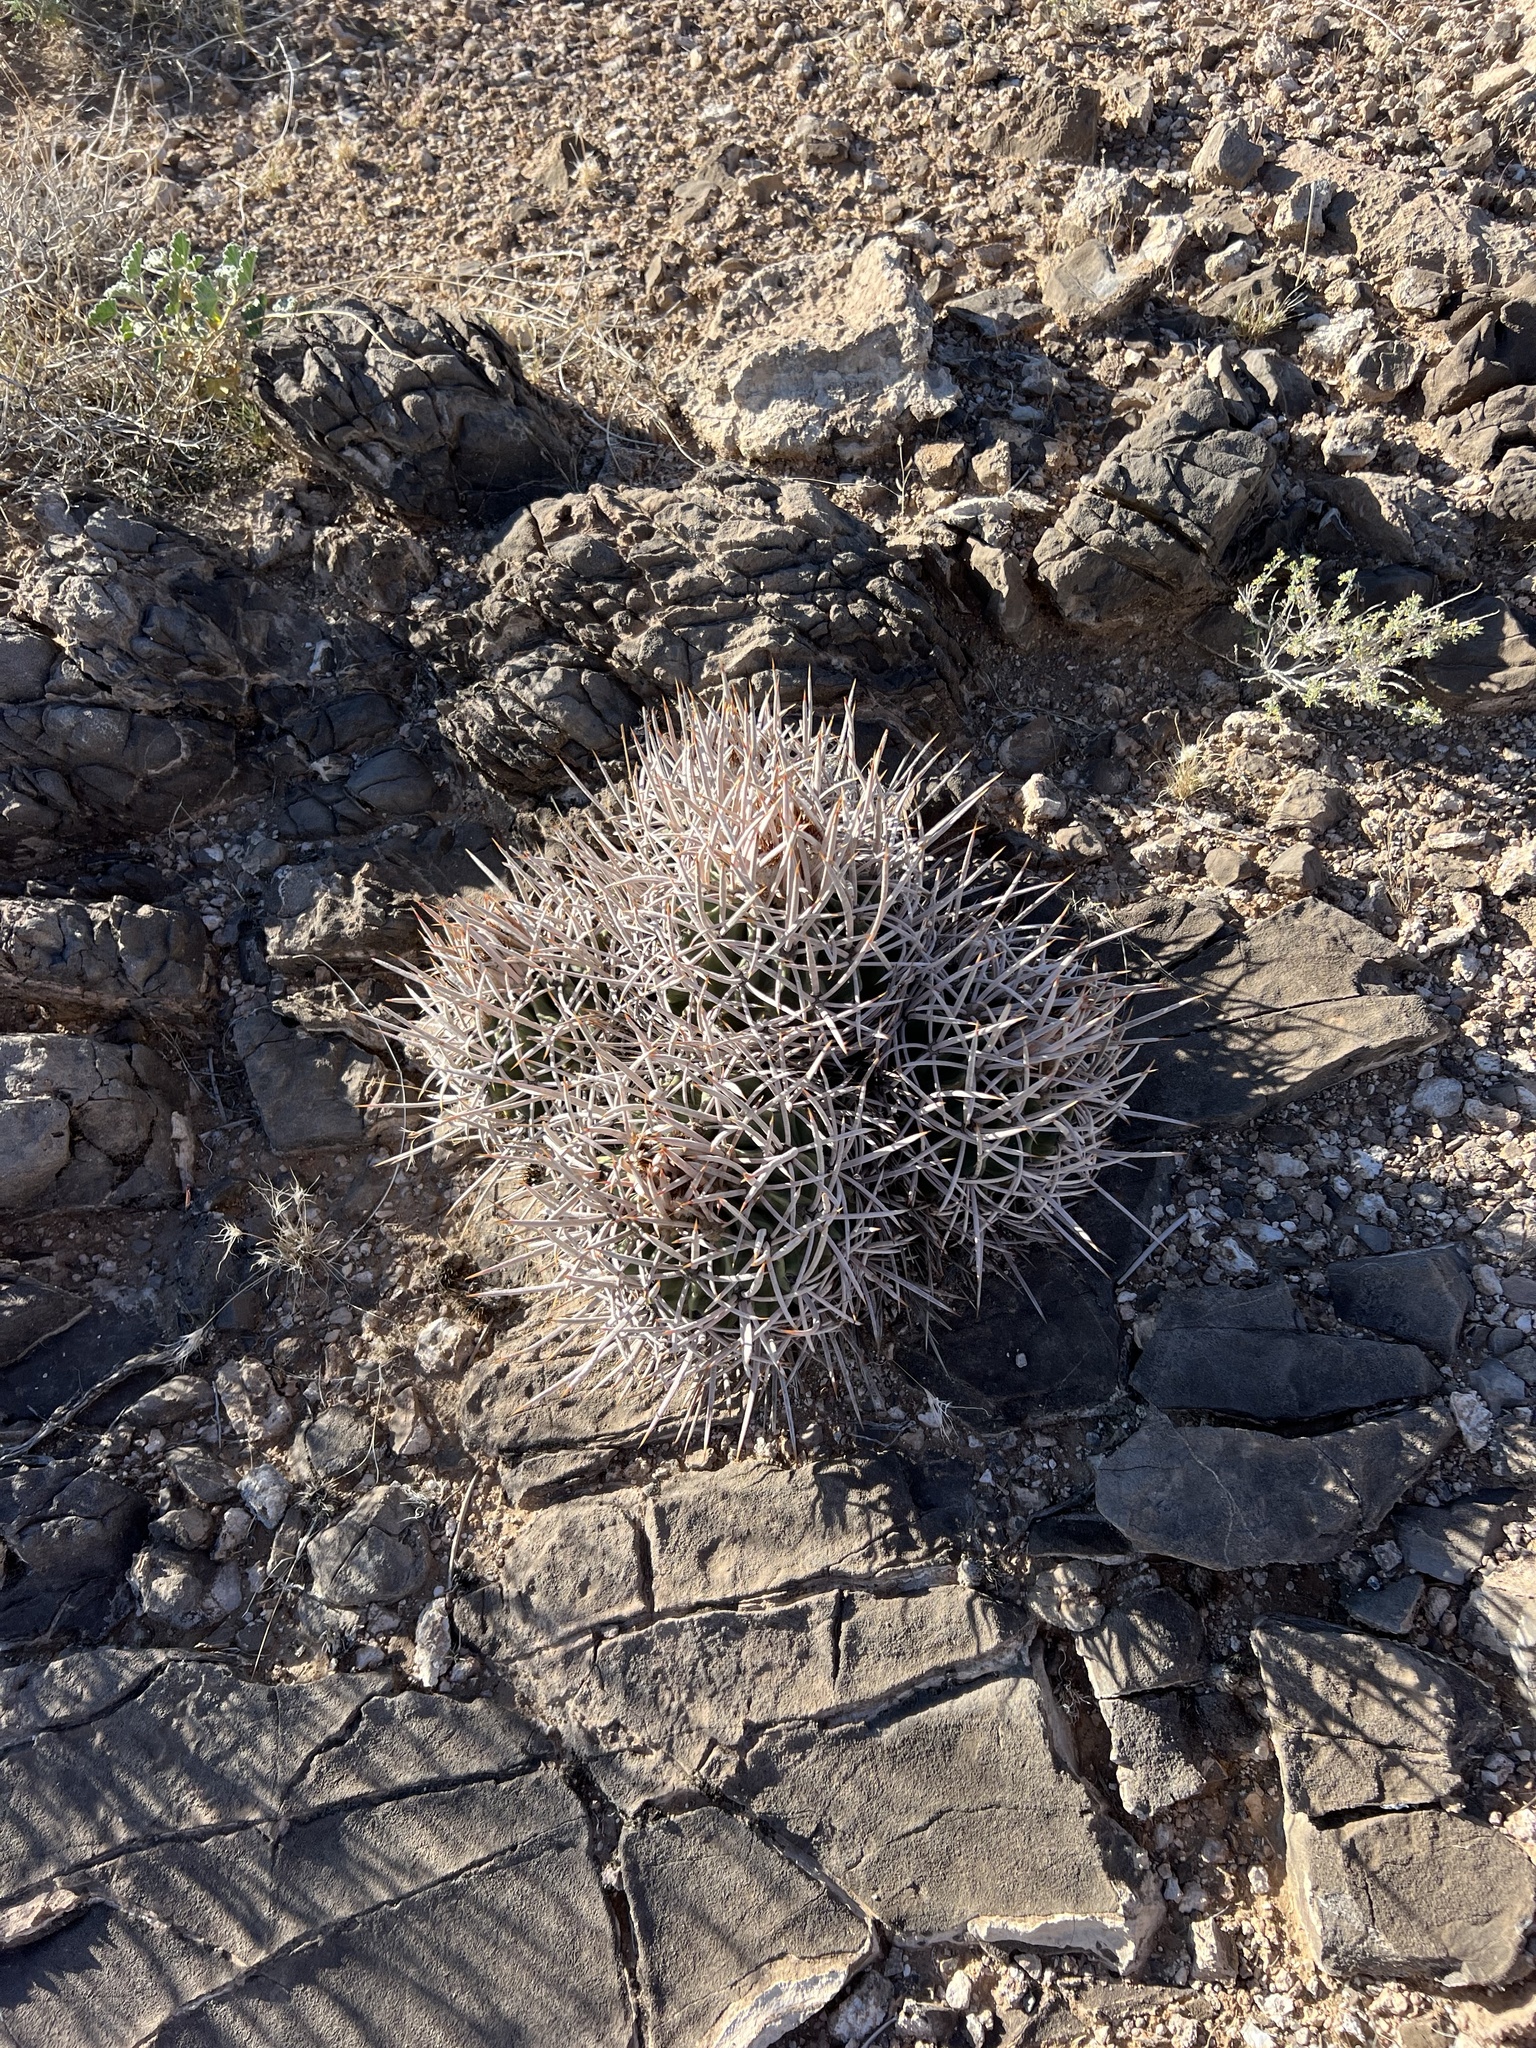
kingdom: Plantae
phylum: Tracheophyta
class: Magnoliopsida
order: Caryophyllales
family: Cactaceae
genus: Echinocactus
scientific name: Echinocactus polycephalus
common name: Cottontop cactus
